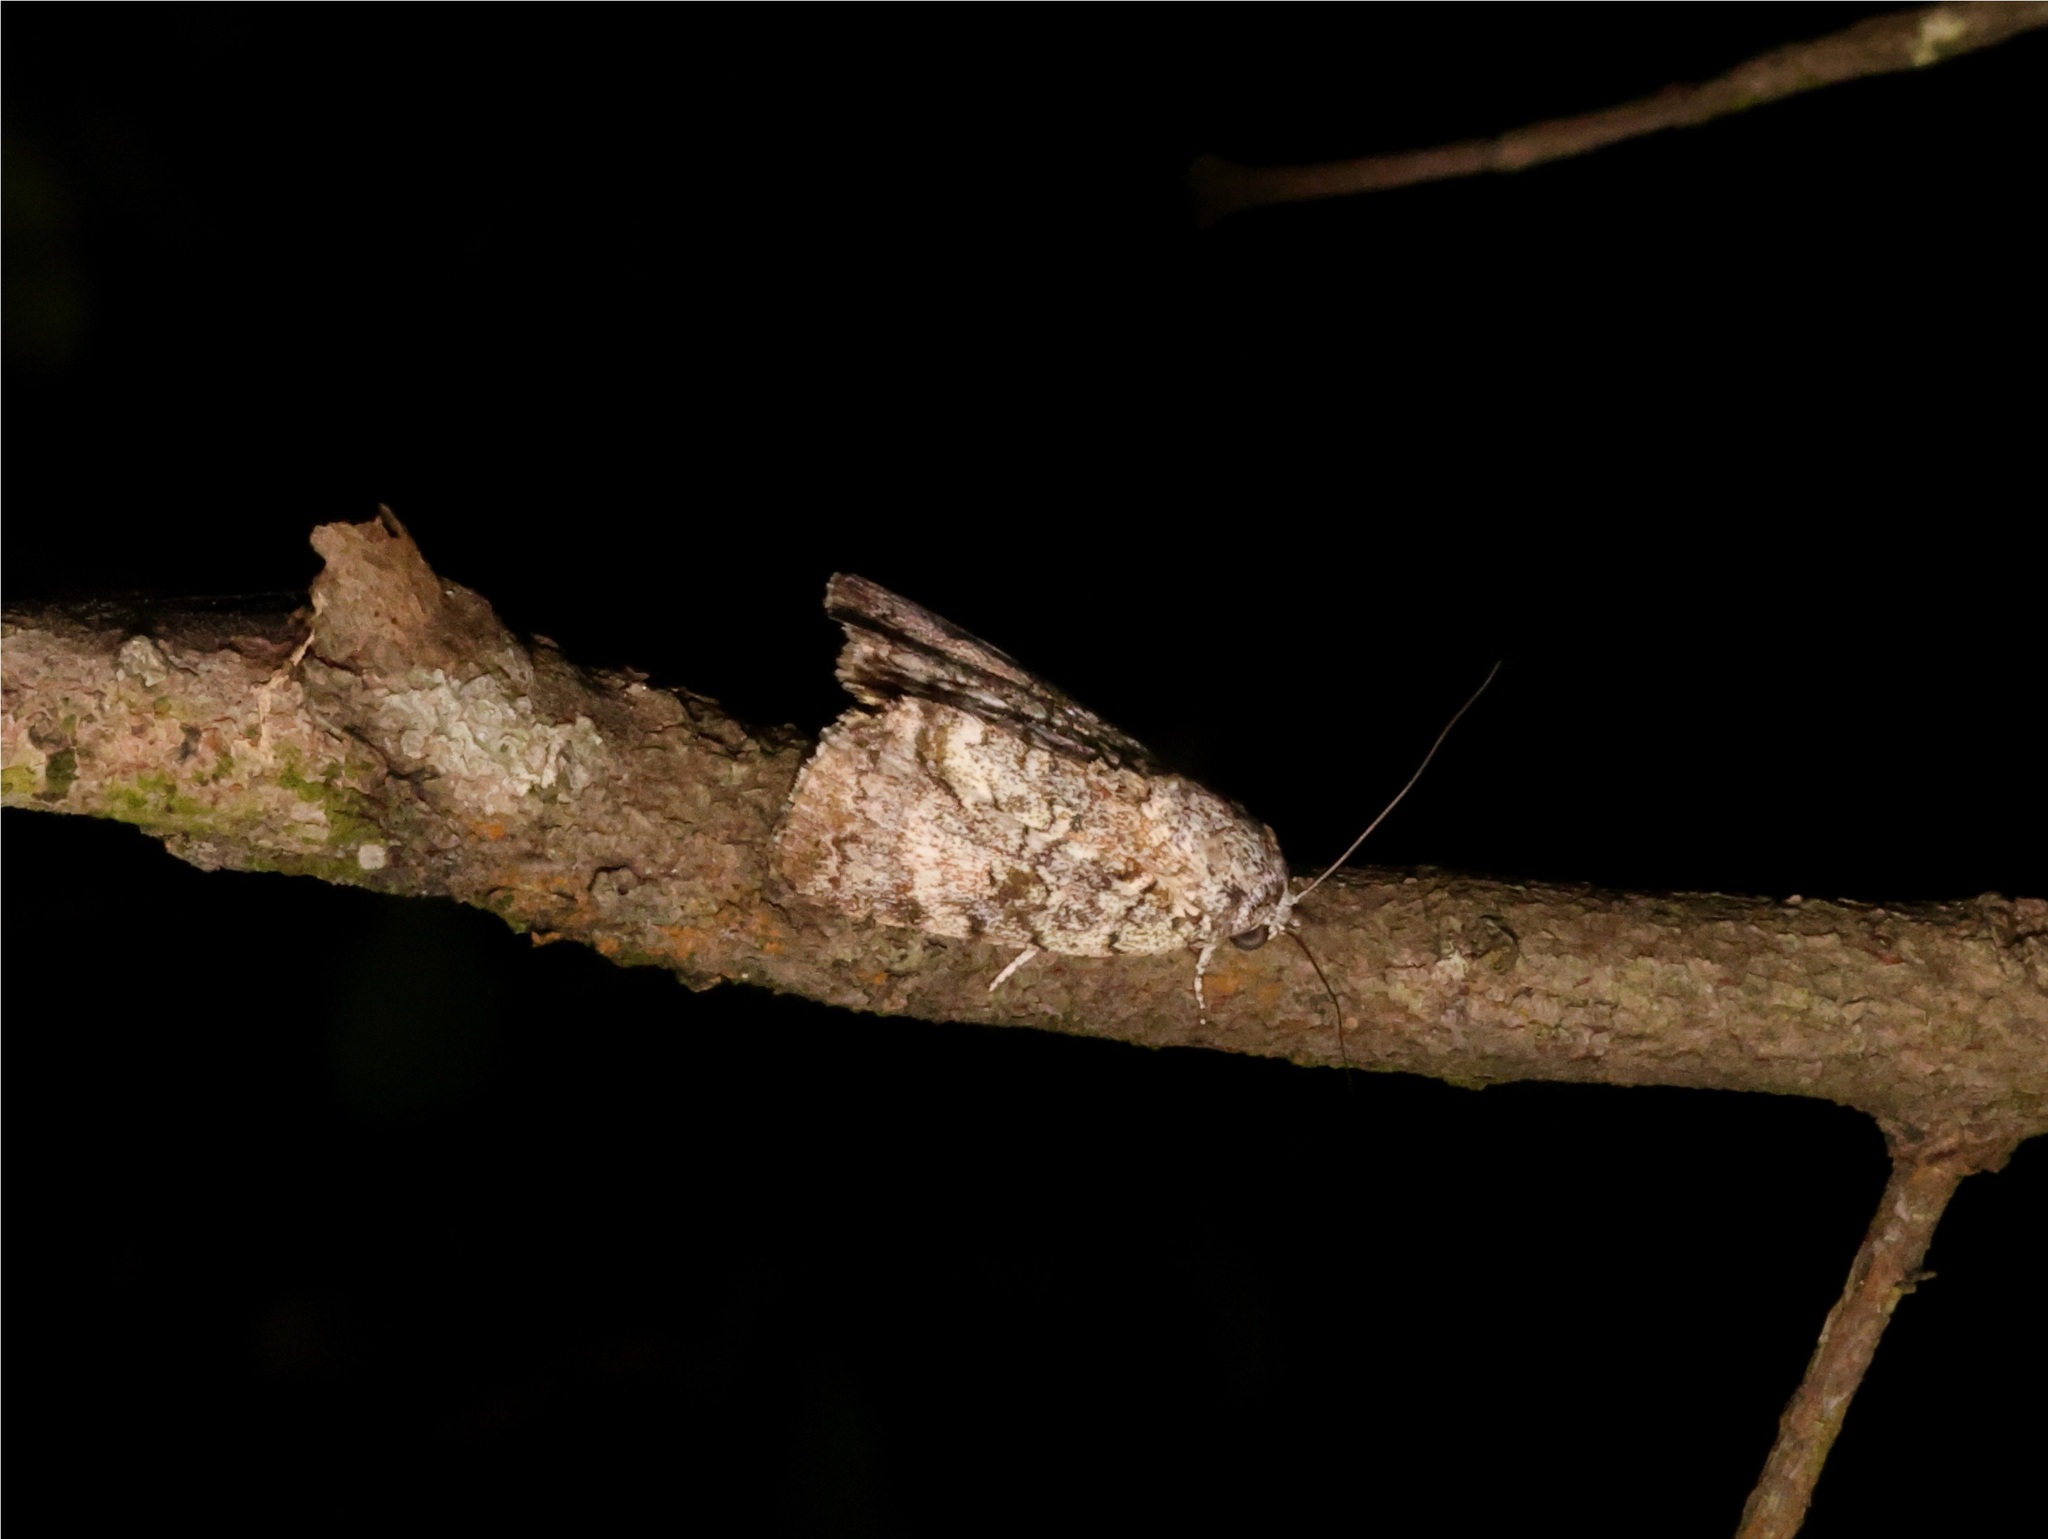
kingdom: Animalia
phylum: Arthropoda
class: Insecta
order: Lepidoptera
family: Nolidae
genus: Blenina
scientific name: Blenina quinaria
